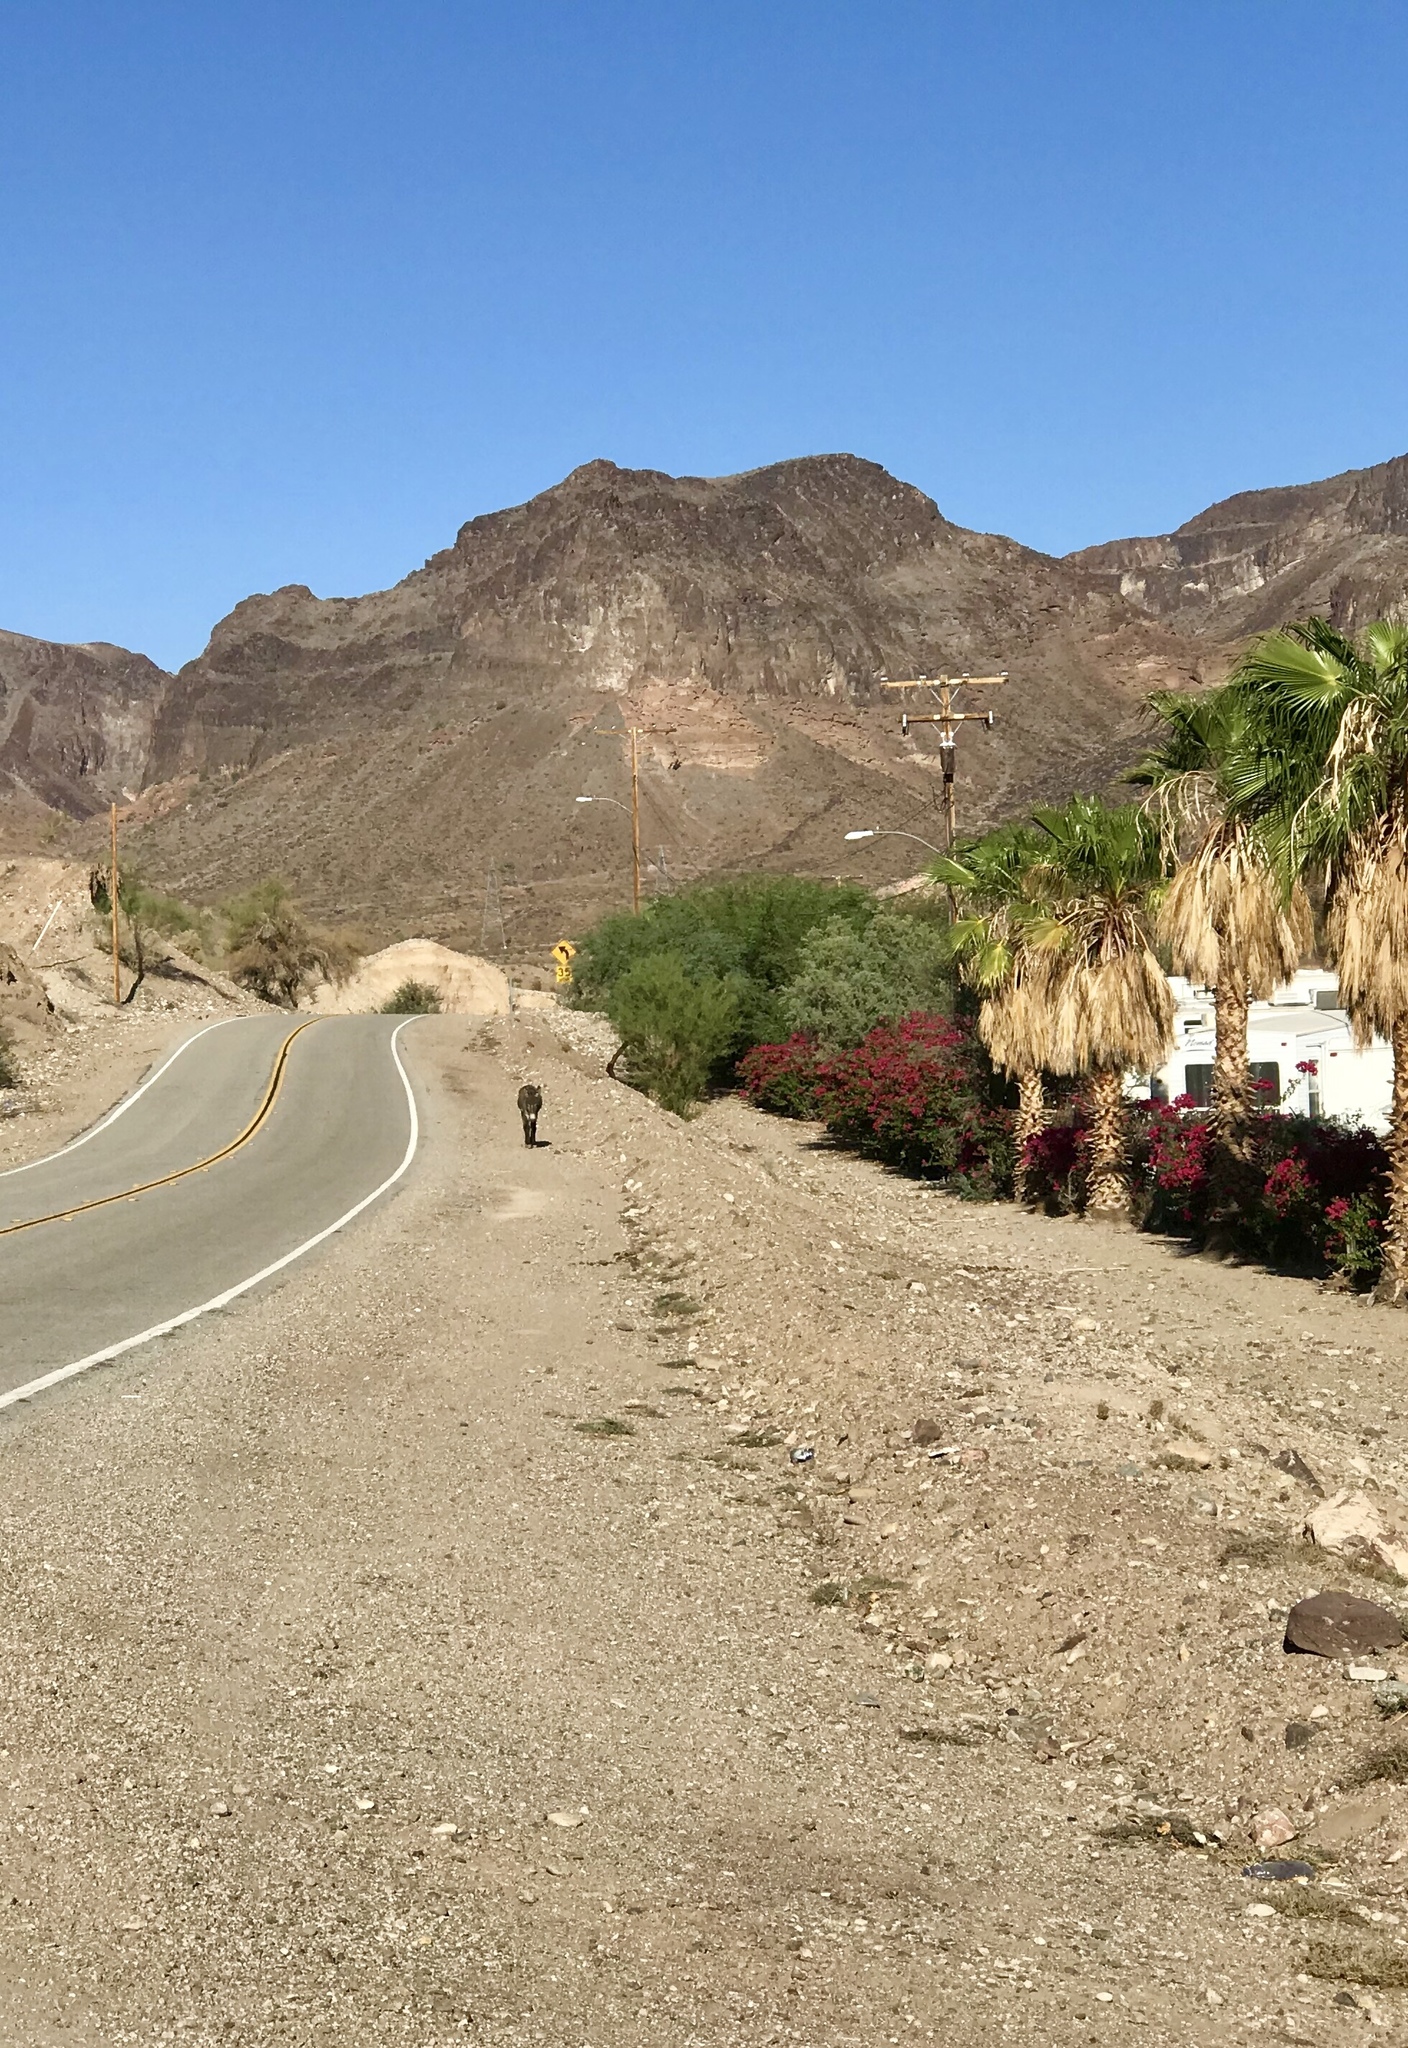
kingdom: Animalia
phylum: Chordata
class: Mammalia
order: Perissodactyla
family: Equidae
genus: Equus
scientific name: Equus asinus
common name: Ass
